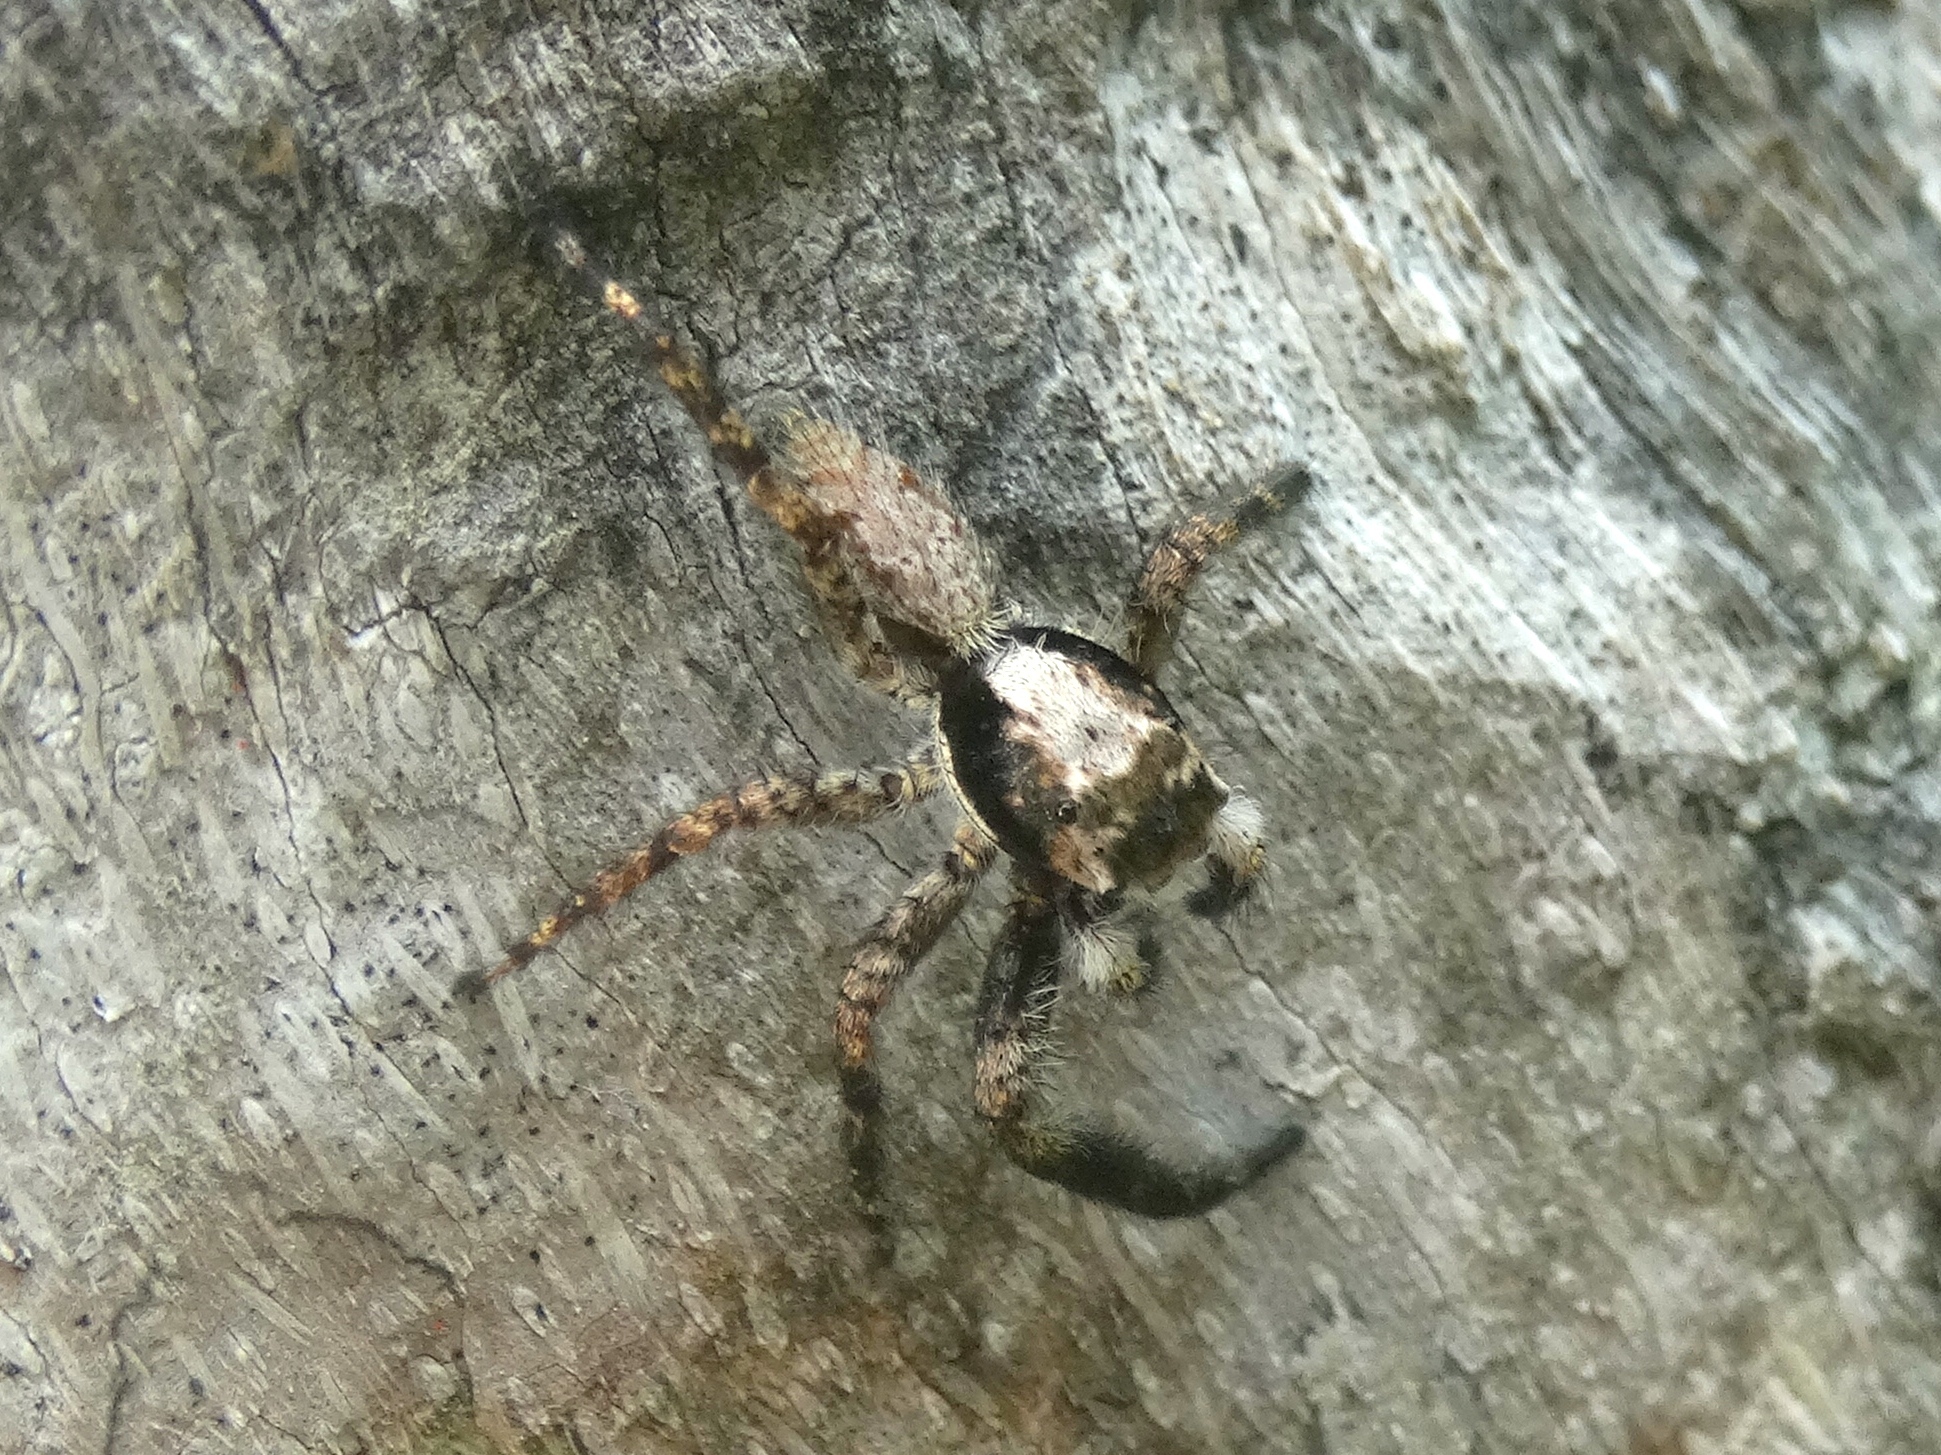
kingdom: Animalia
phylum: Arthropoda
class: Arachnida
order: Araneae
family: Salticidae
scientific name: Salticidae
